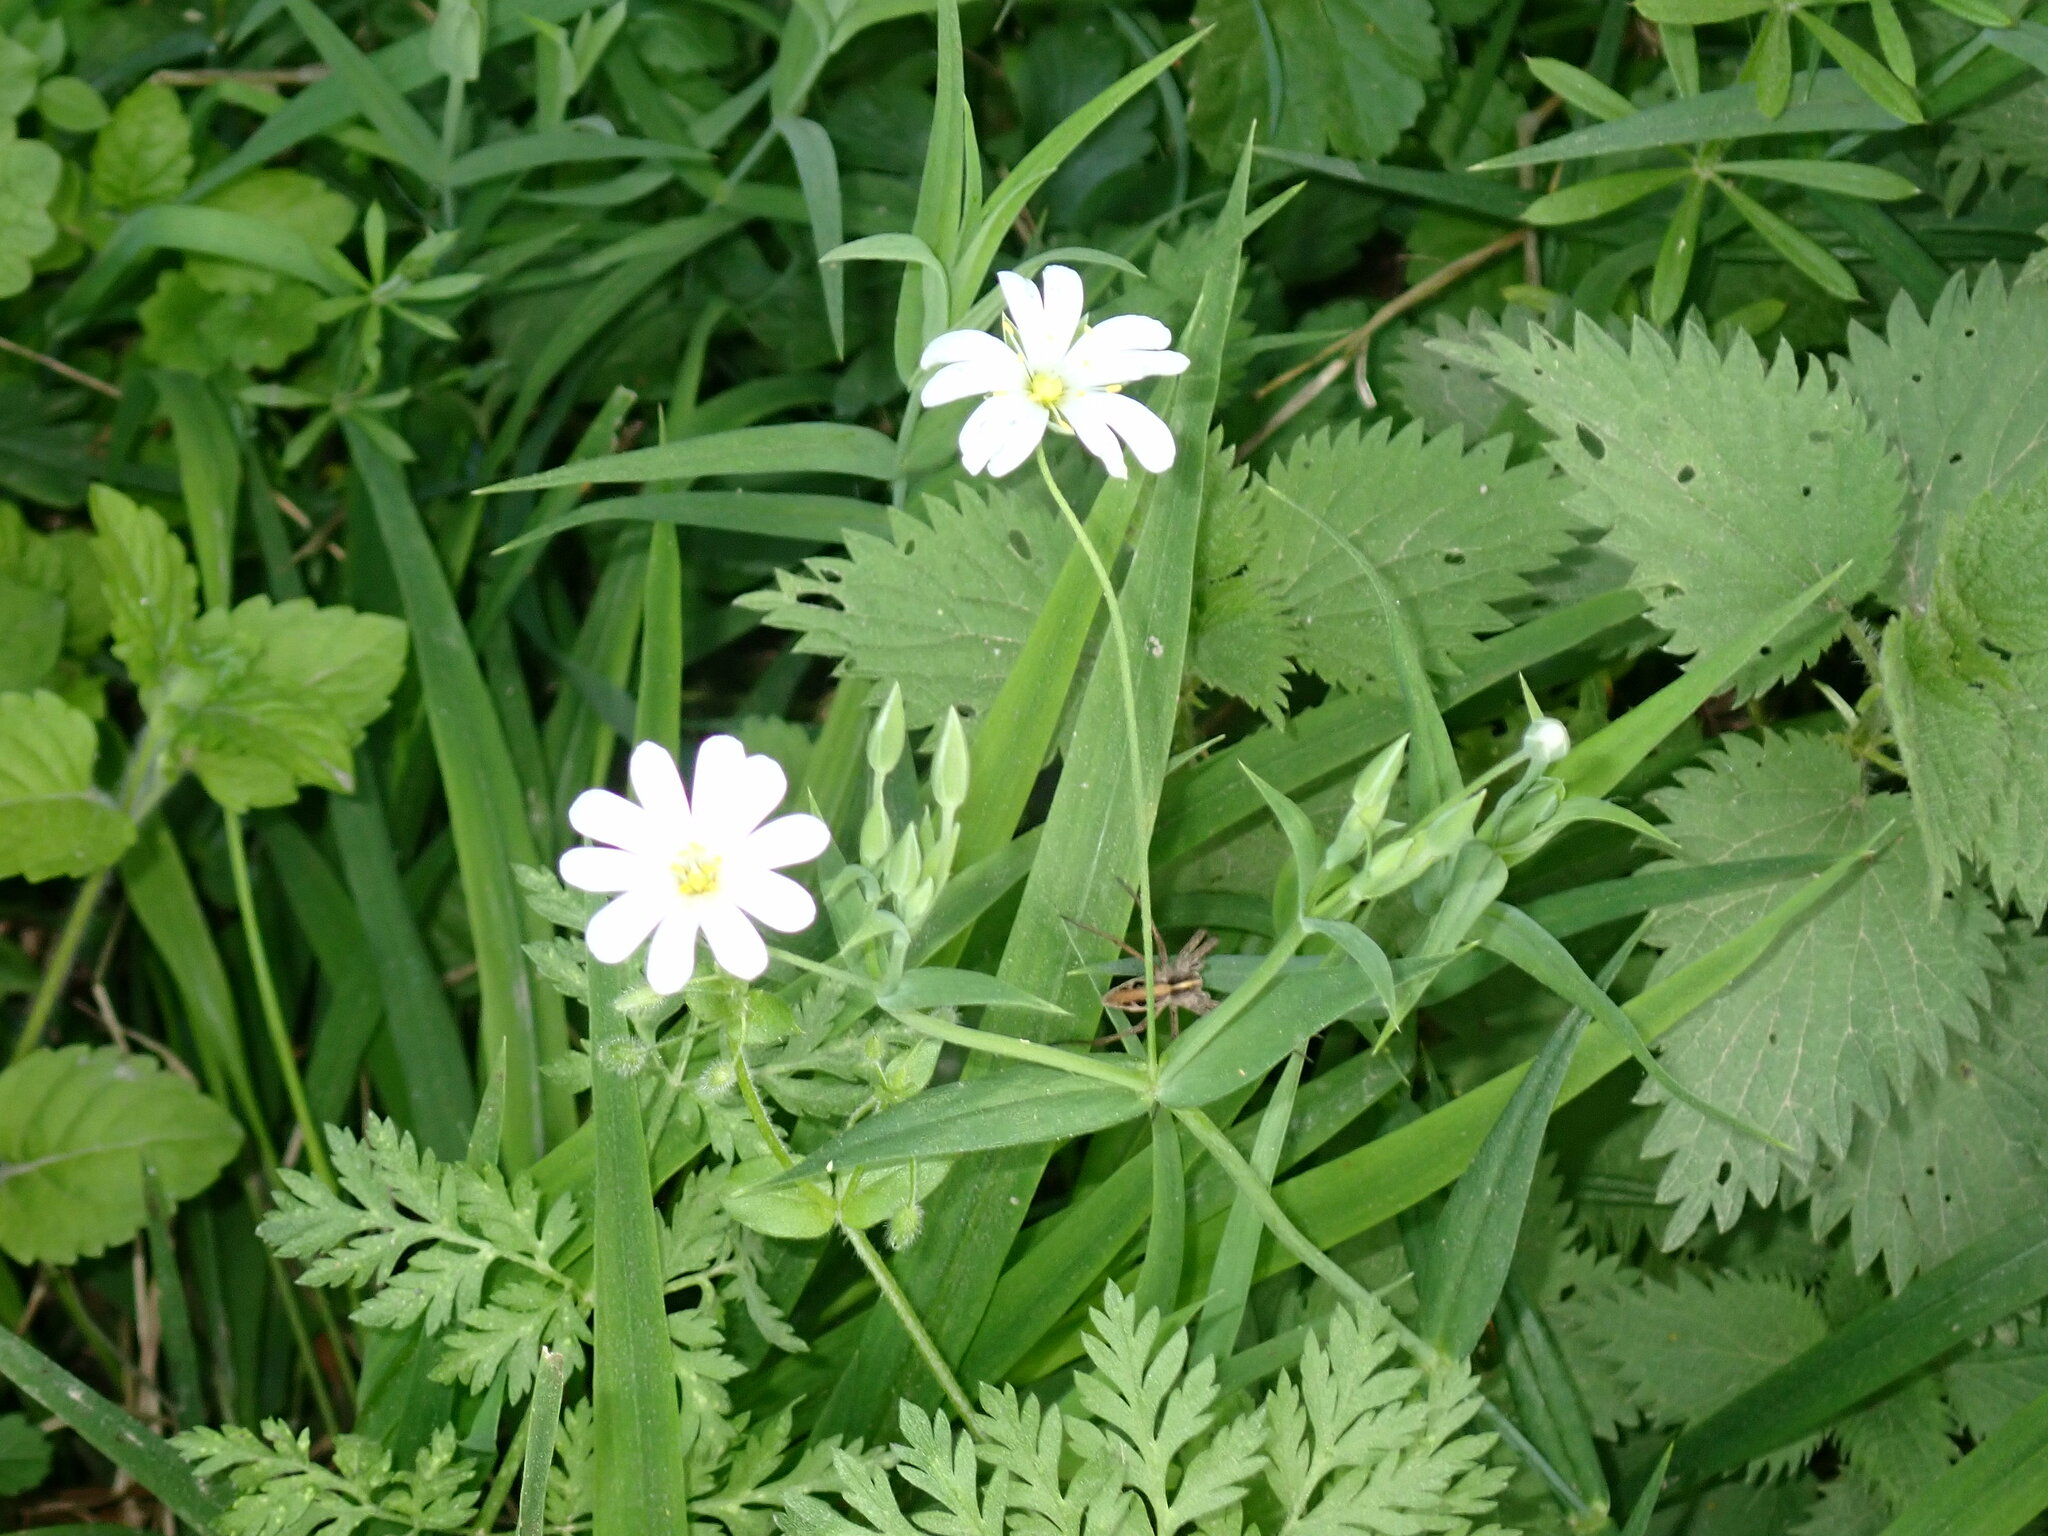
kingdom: Plantae
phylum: Tracheophyta
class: Magnoliopsida
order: Caryophyllales
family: Caryophyllaceae
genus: Rabelera
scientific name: Rabelera holostea
